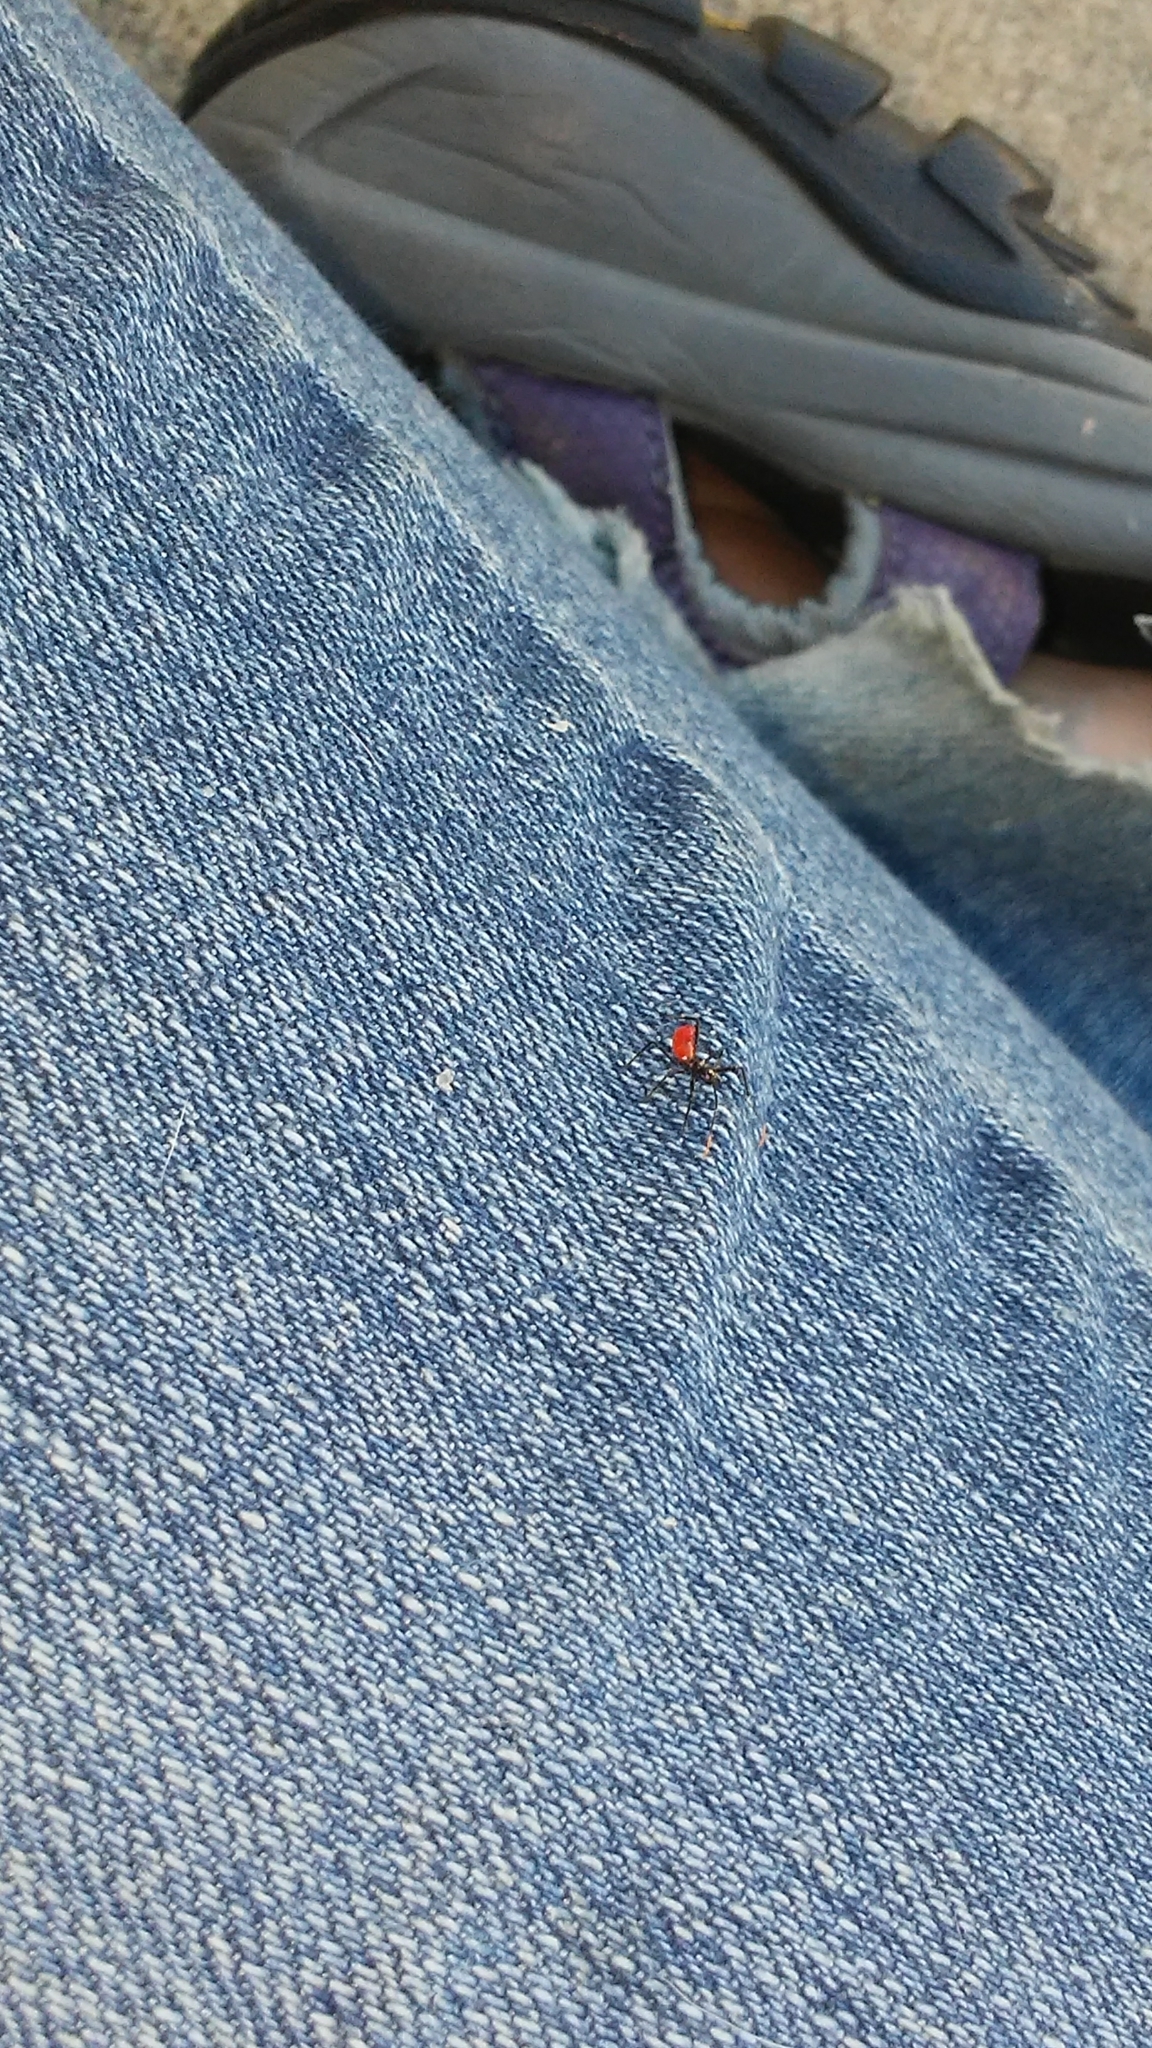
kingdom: Animalia
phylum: Arthropoda
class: Insecta
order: Hemiptera
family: Reduviidae
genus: Arilus
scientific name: Arilus cristatus
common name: North american wheel bug
